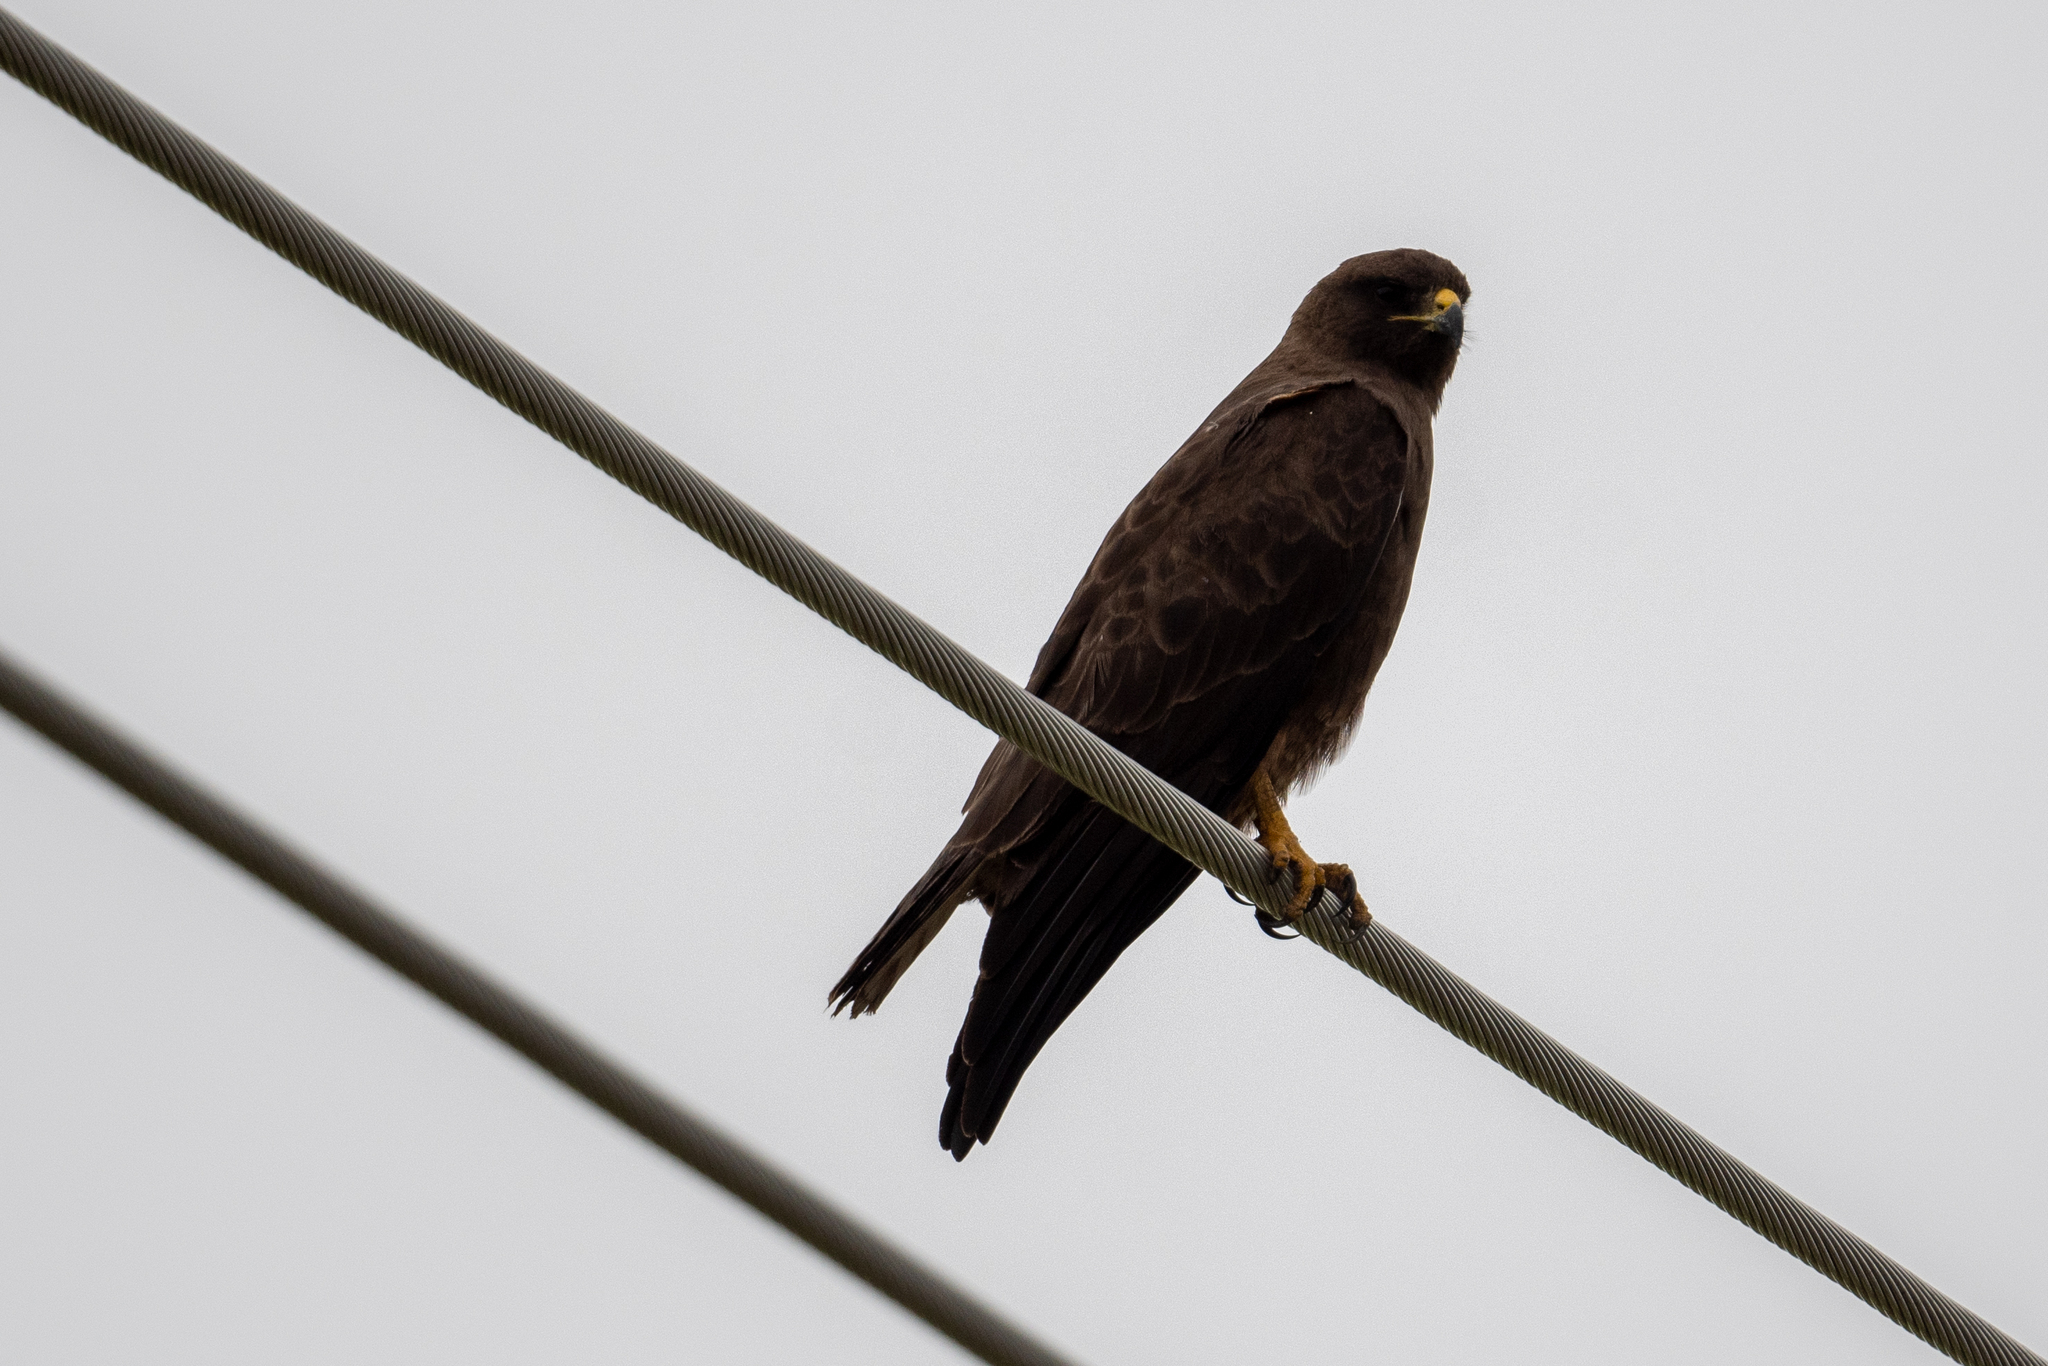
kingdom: Animalia
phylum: Chordata
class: Aves
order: Accipitriformes
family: Accipitridae
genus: Buteo
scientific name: Buteo swainsoni
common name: Swainson's hawk
